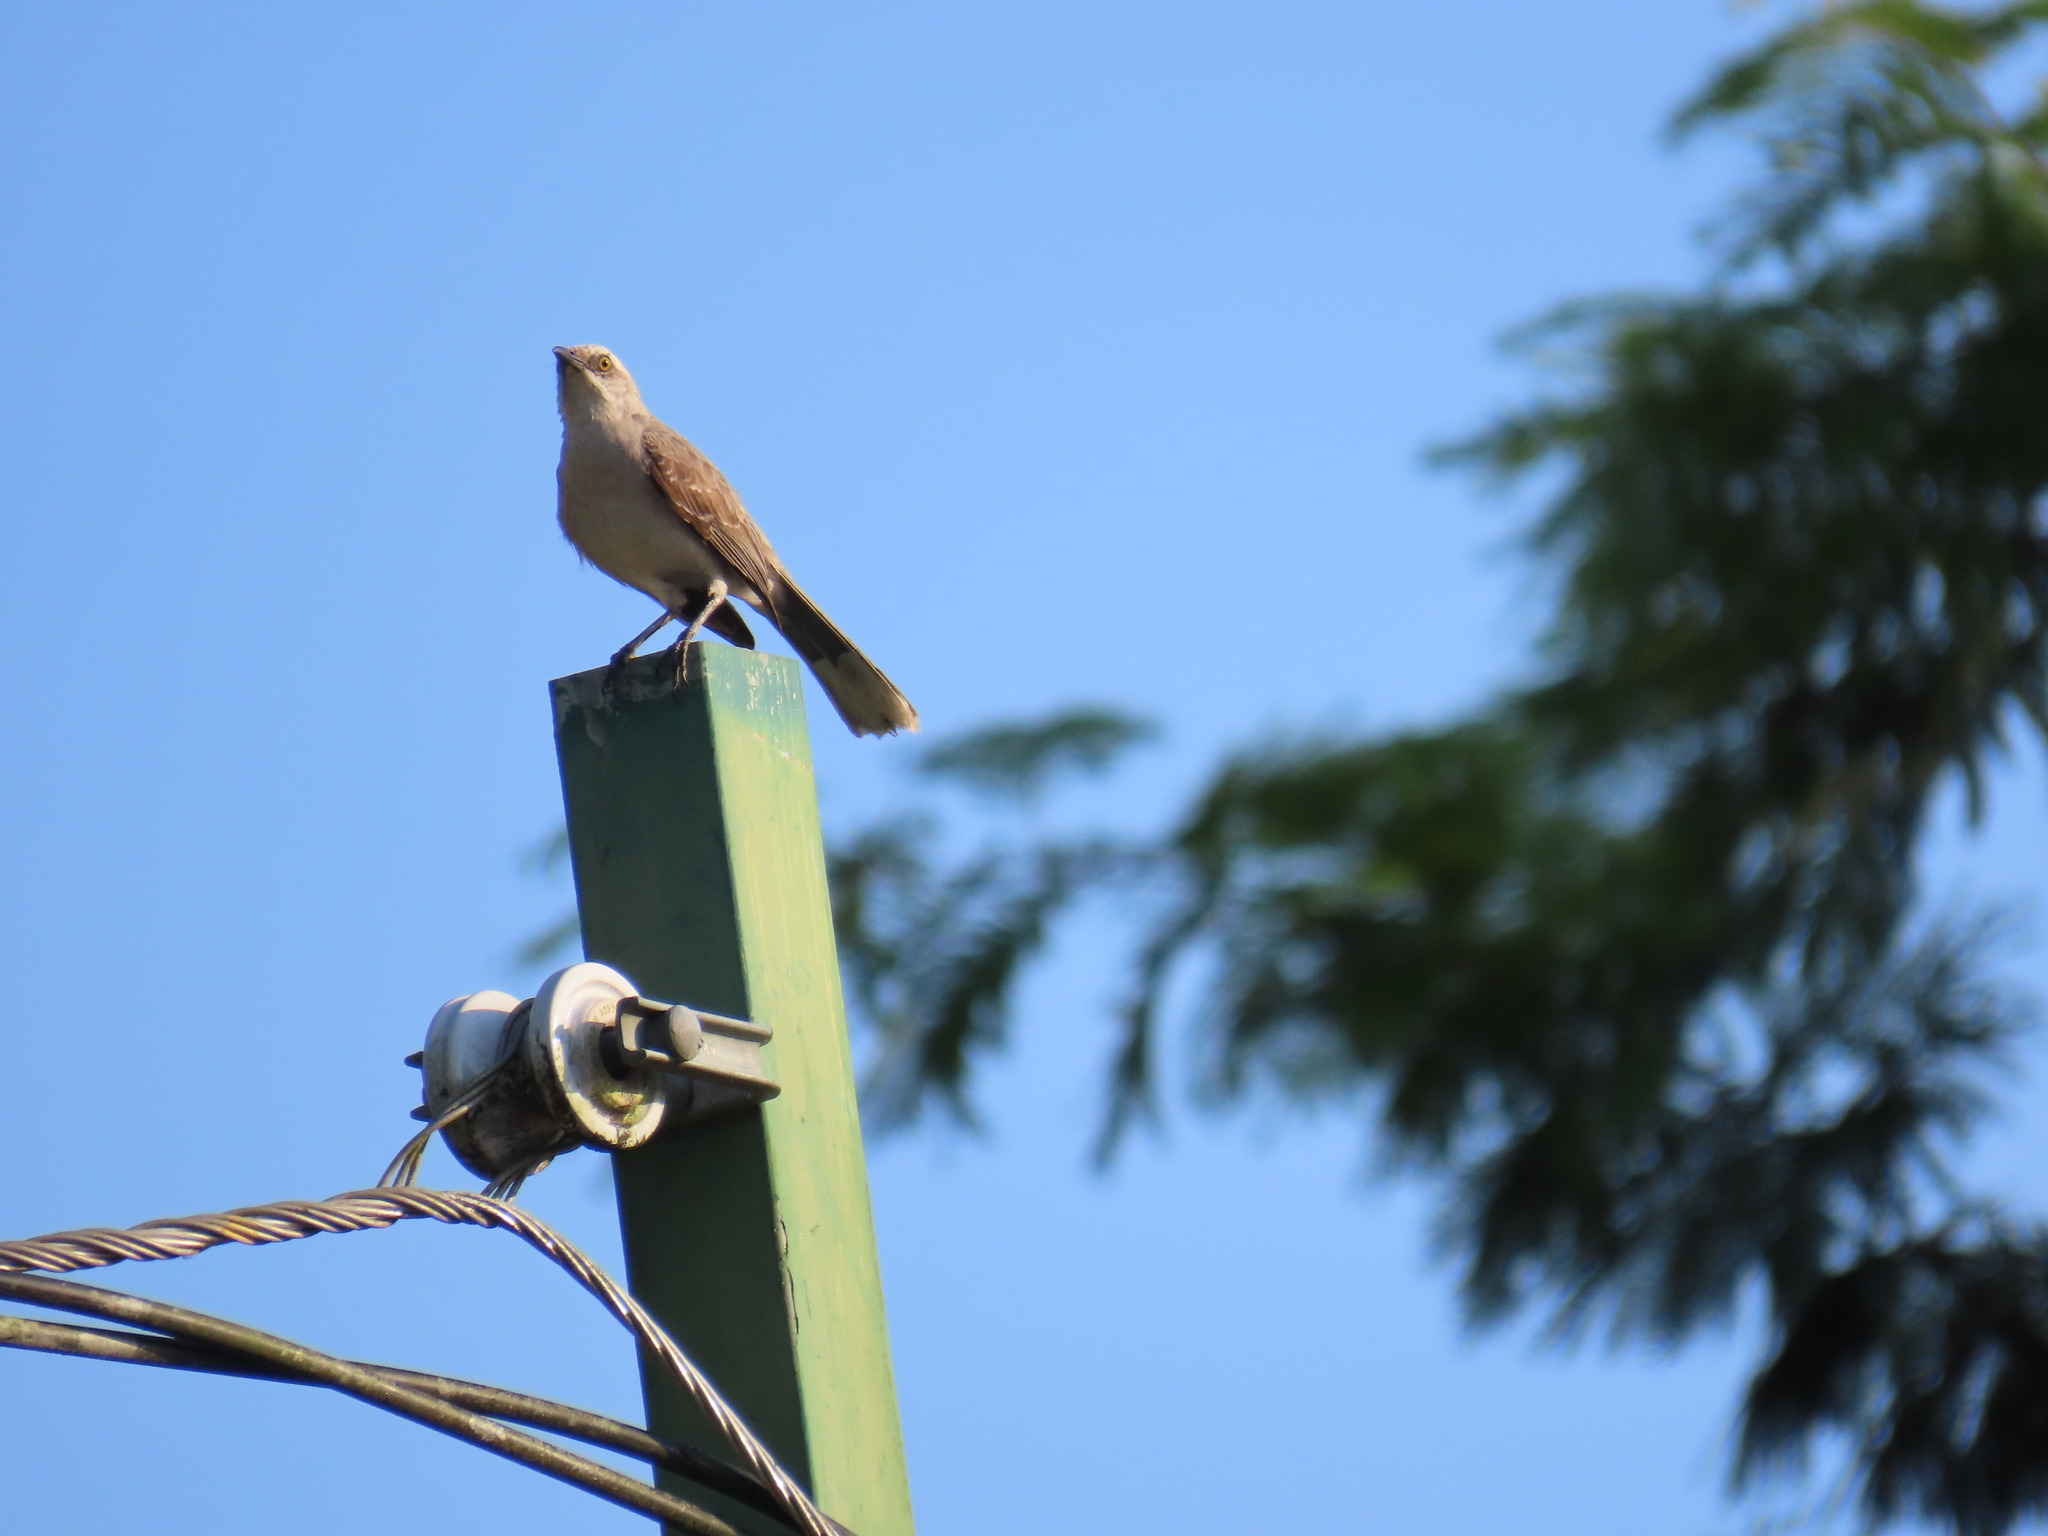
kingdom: Animalia
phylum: Chordata
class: Aves
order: Passeriformes
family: Mimidae
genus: Mimus
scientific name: Mimus gilvus
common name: Tropical mockingbird
